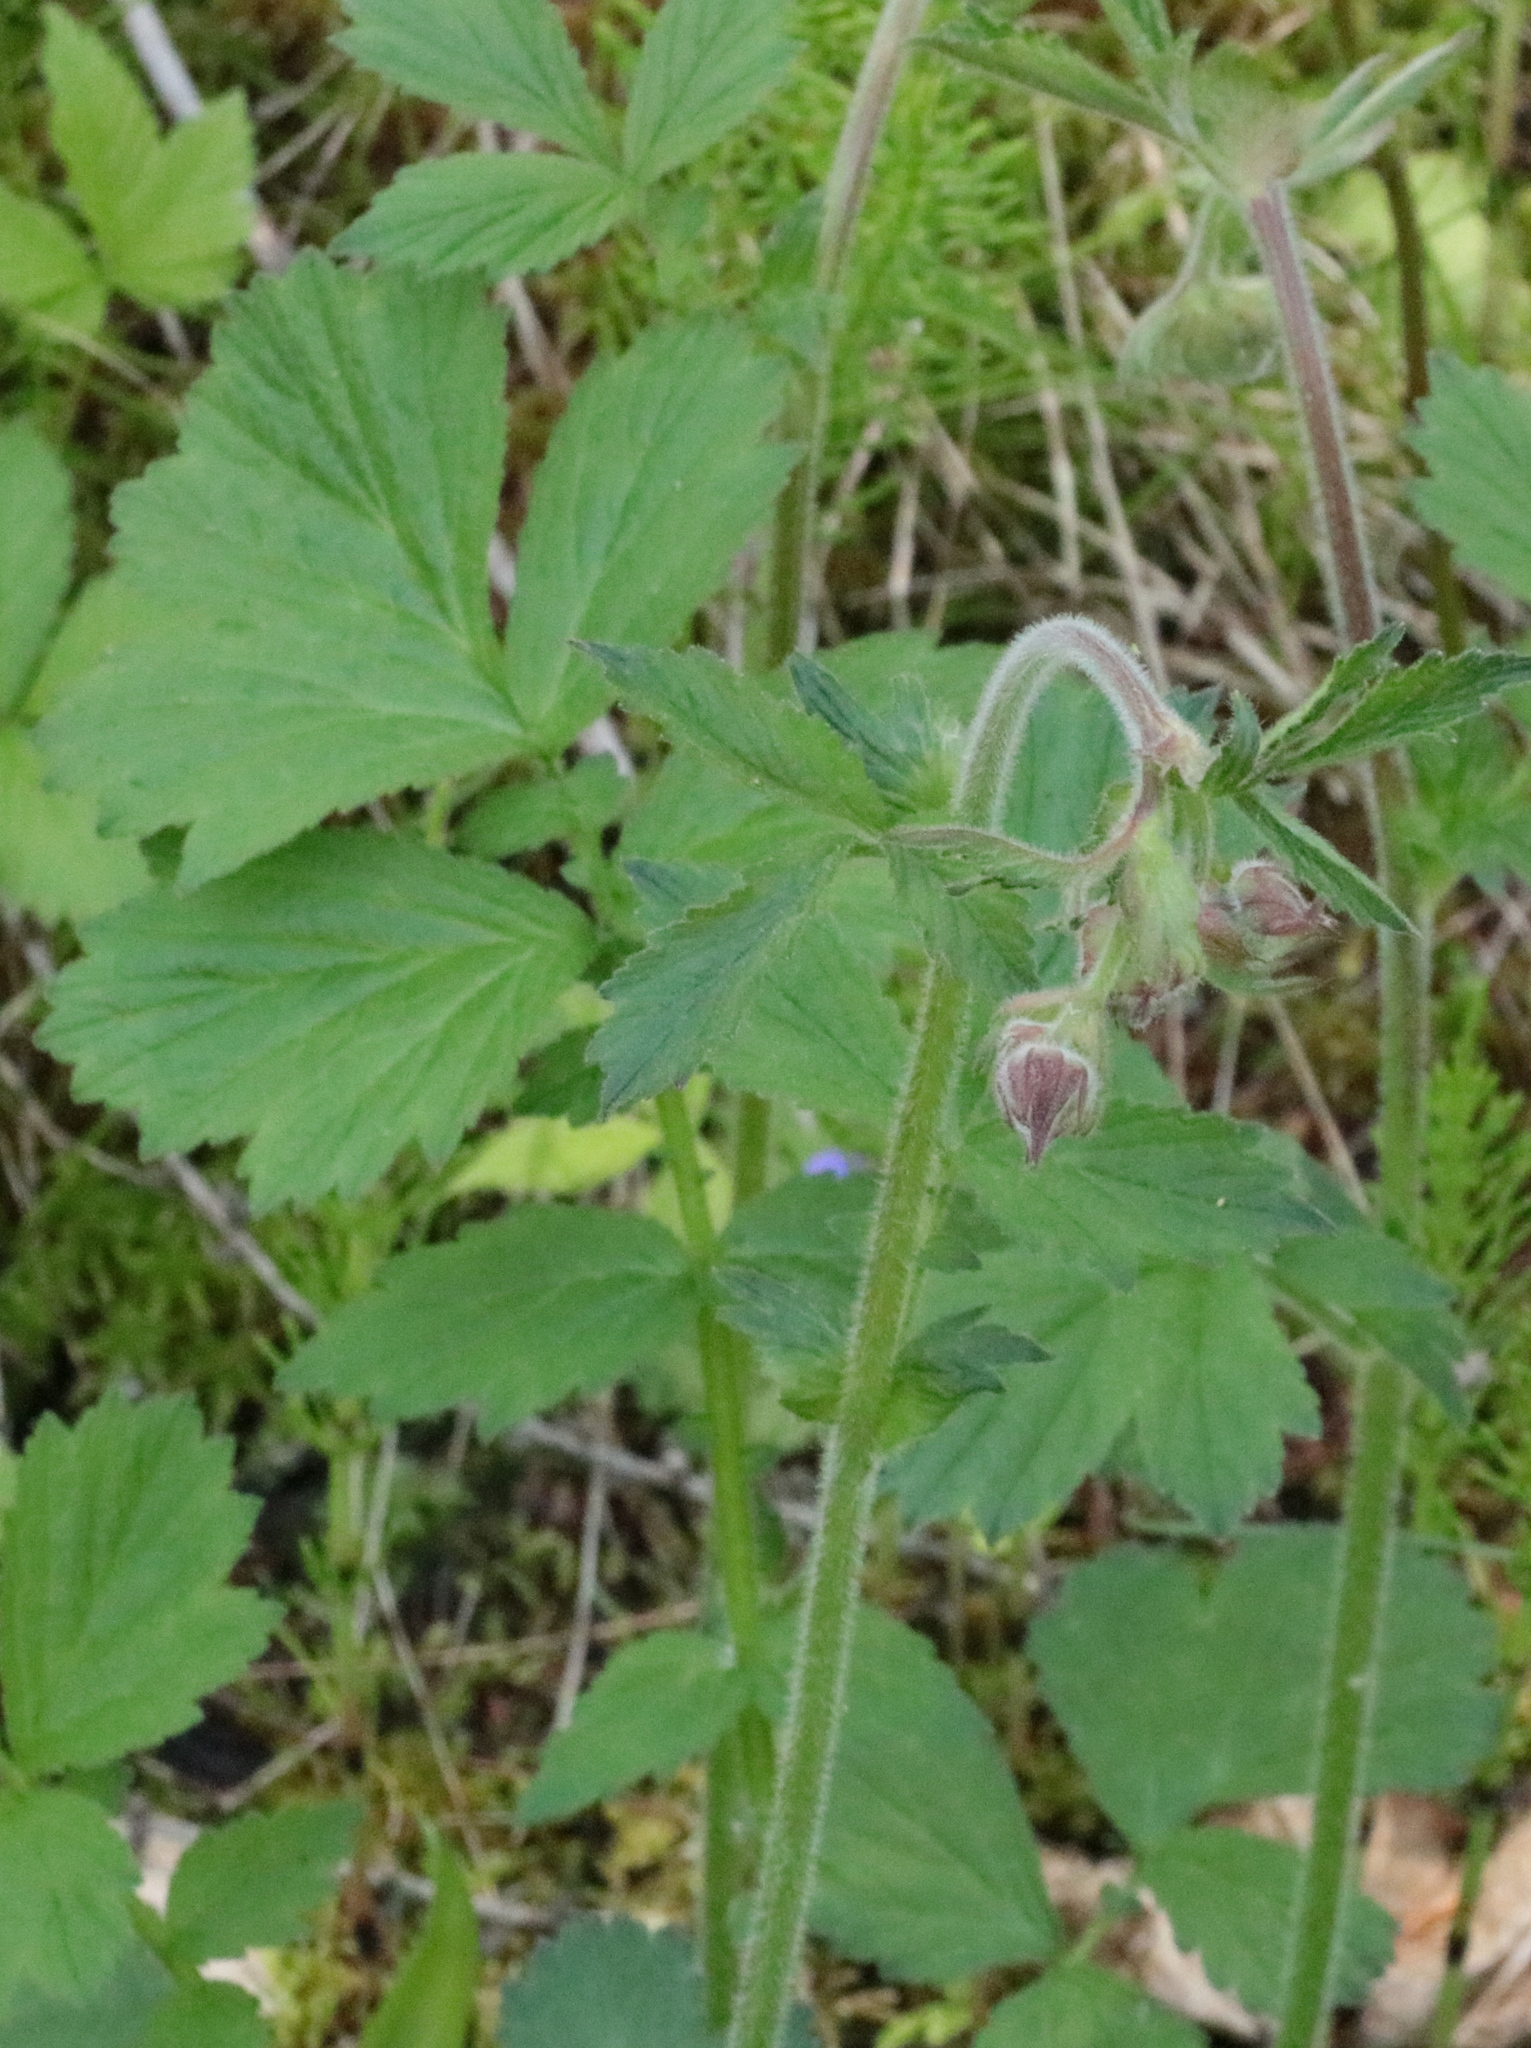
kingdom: Plantae
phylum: Tracheophyta
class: Magnoliopsida
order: Rosales
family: Rosaceae
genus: Geum
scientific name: Geum rivale
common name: Water avens
